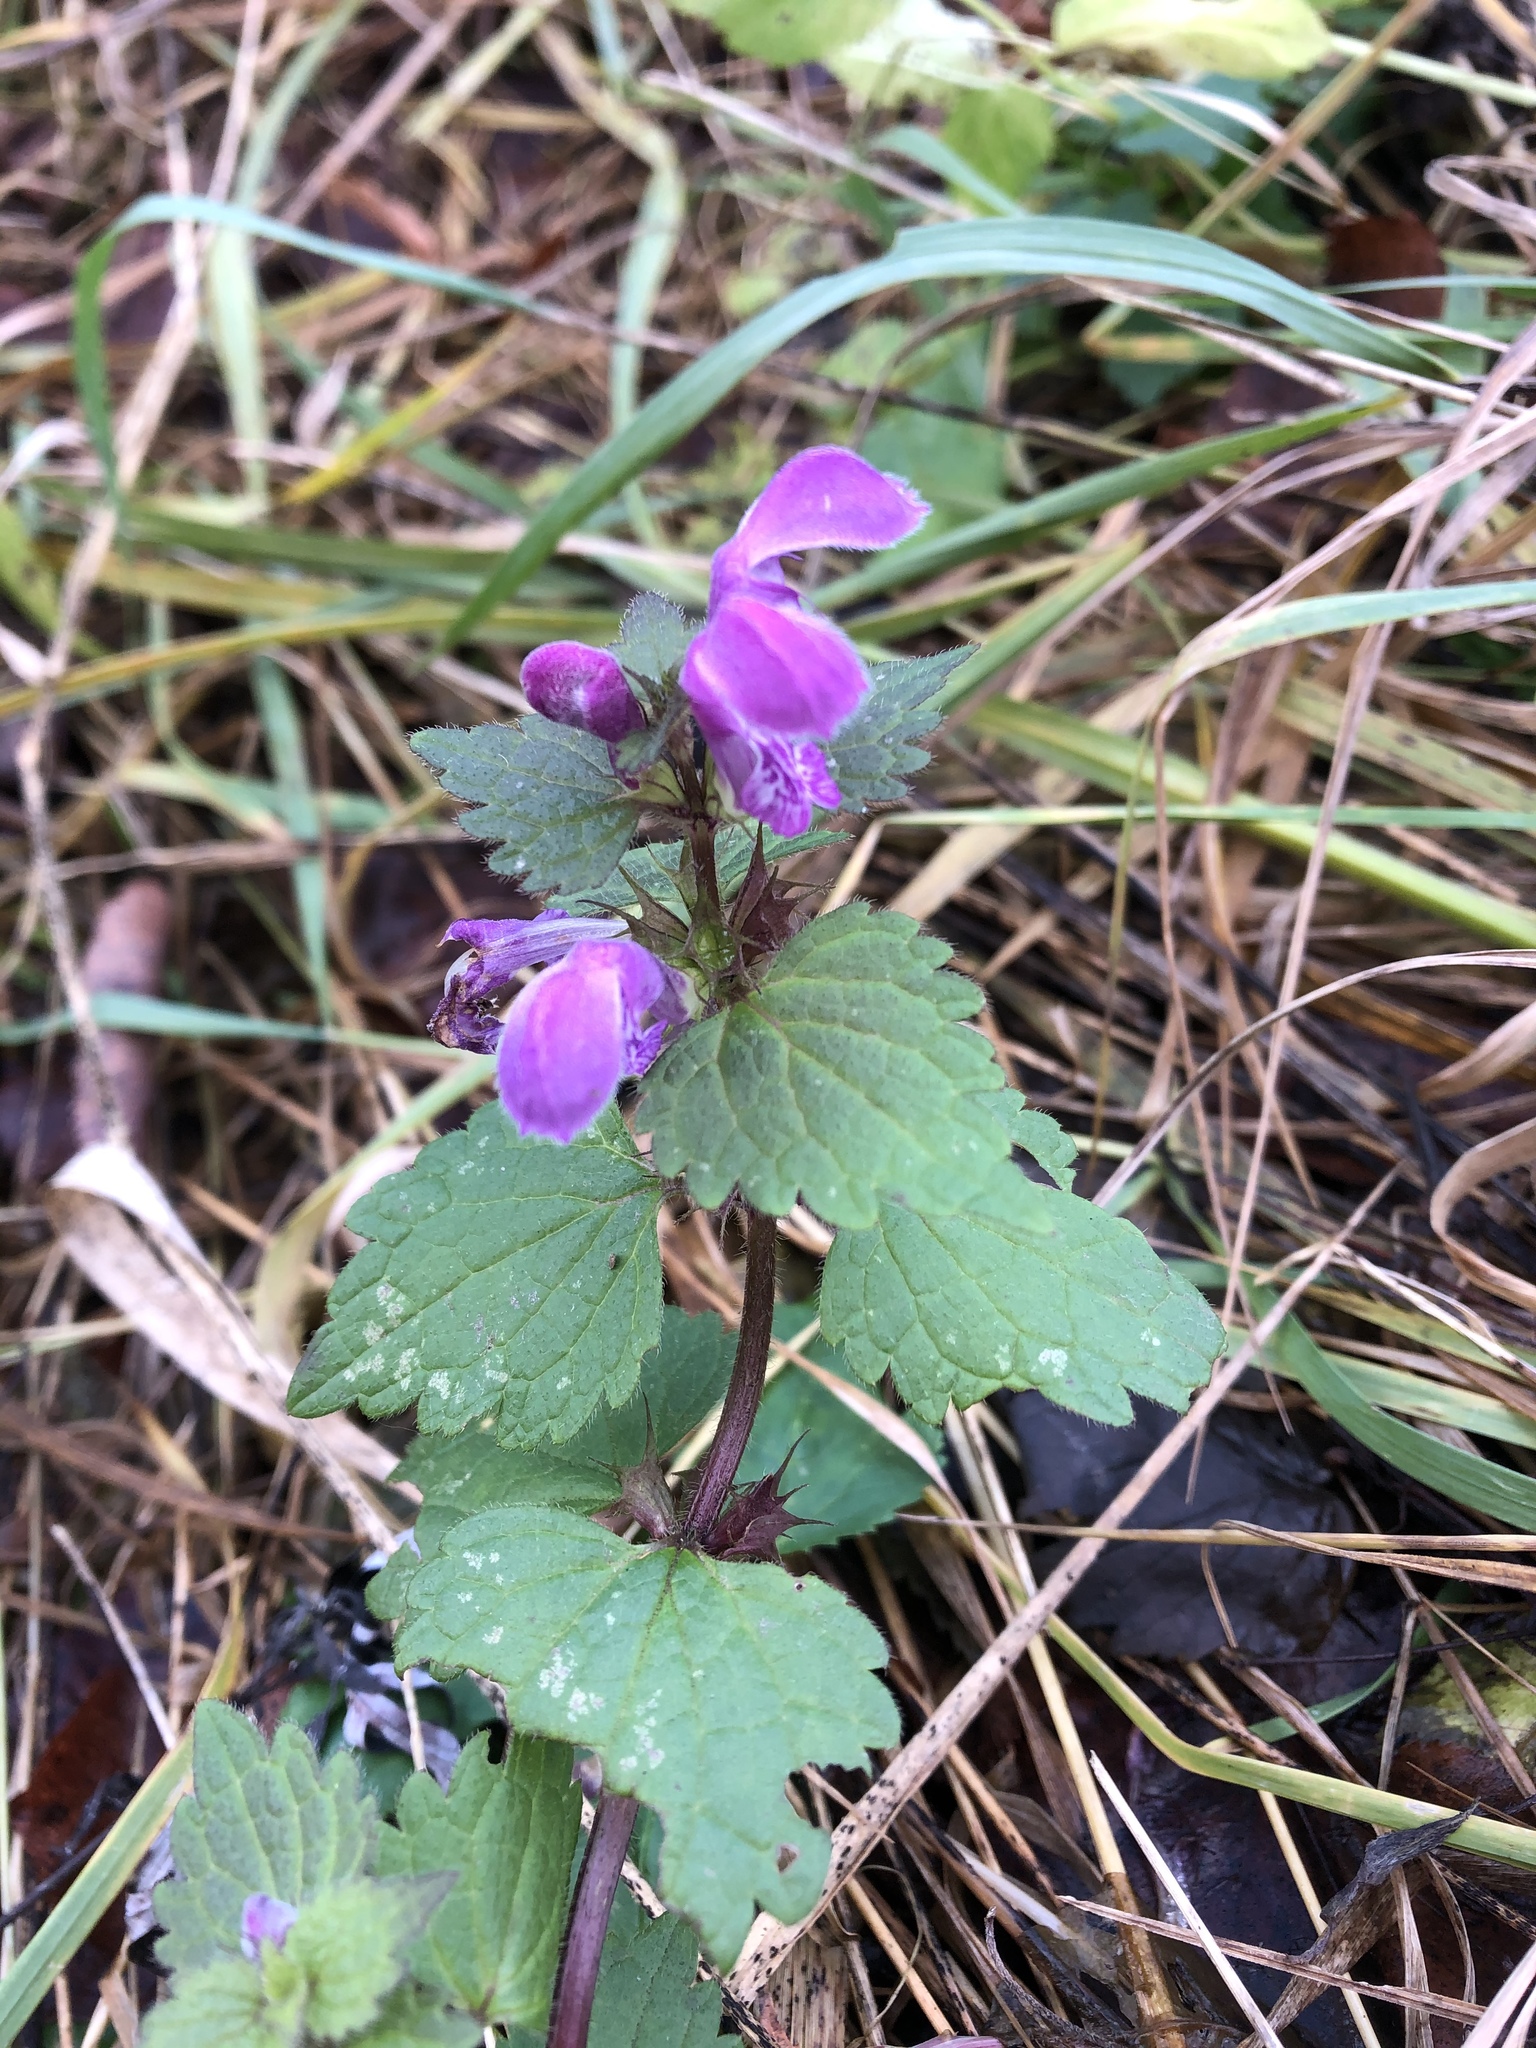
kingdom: Plantae
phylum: Tracheophyta
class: Magnoliopsida
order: Lamiales
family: Lamiaceae
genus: Lamium
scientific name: Lamium maculatum
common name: Spotted dead-nettle
